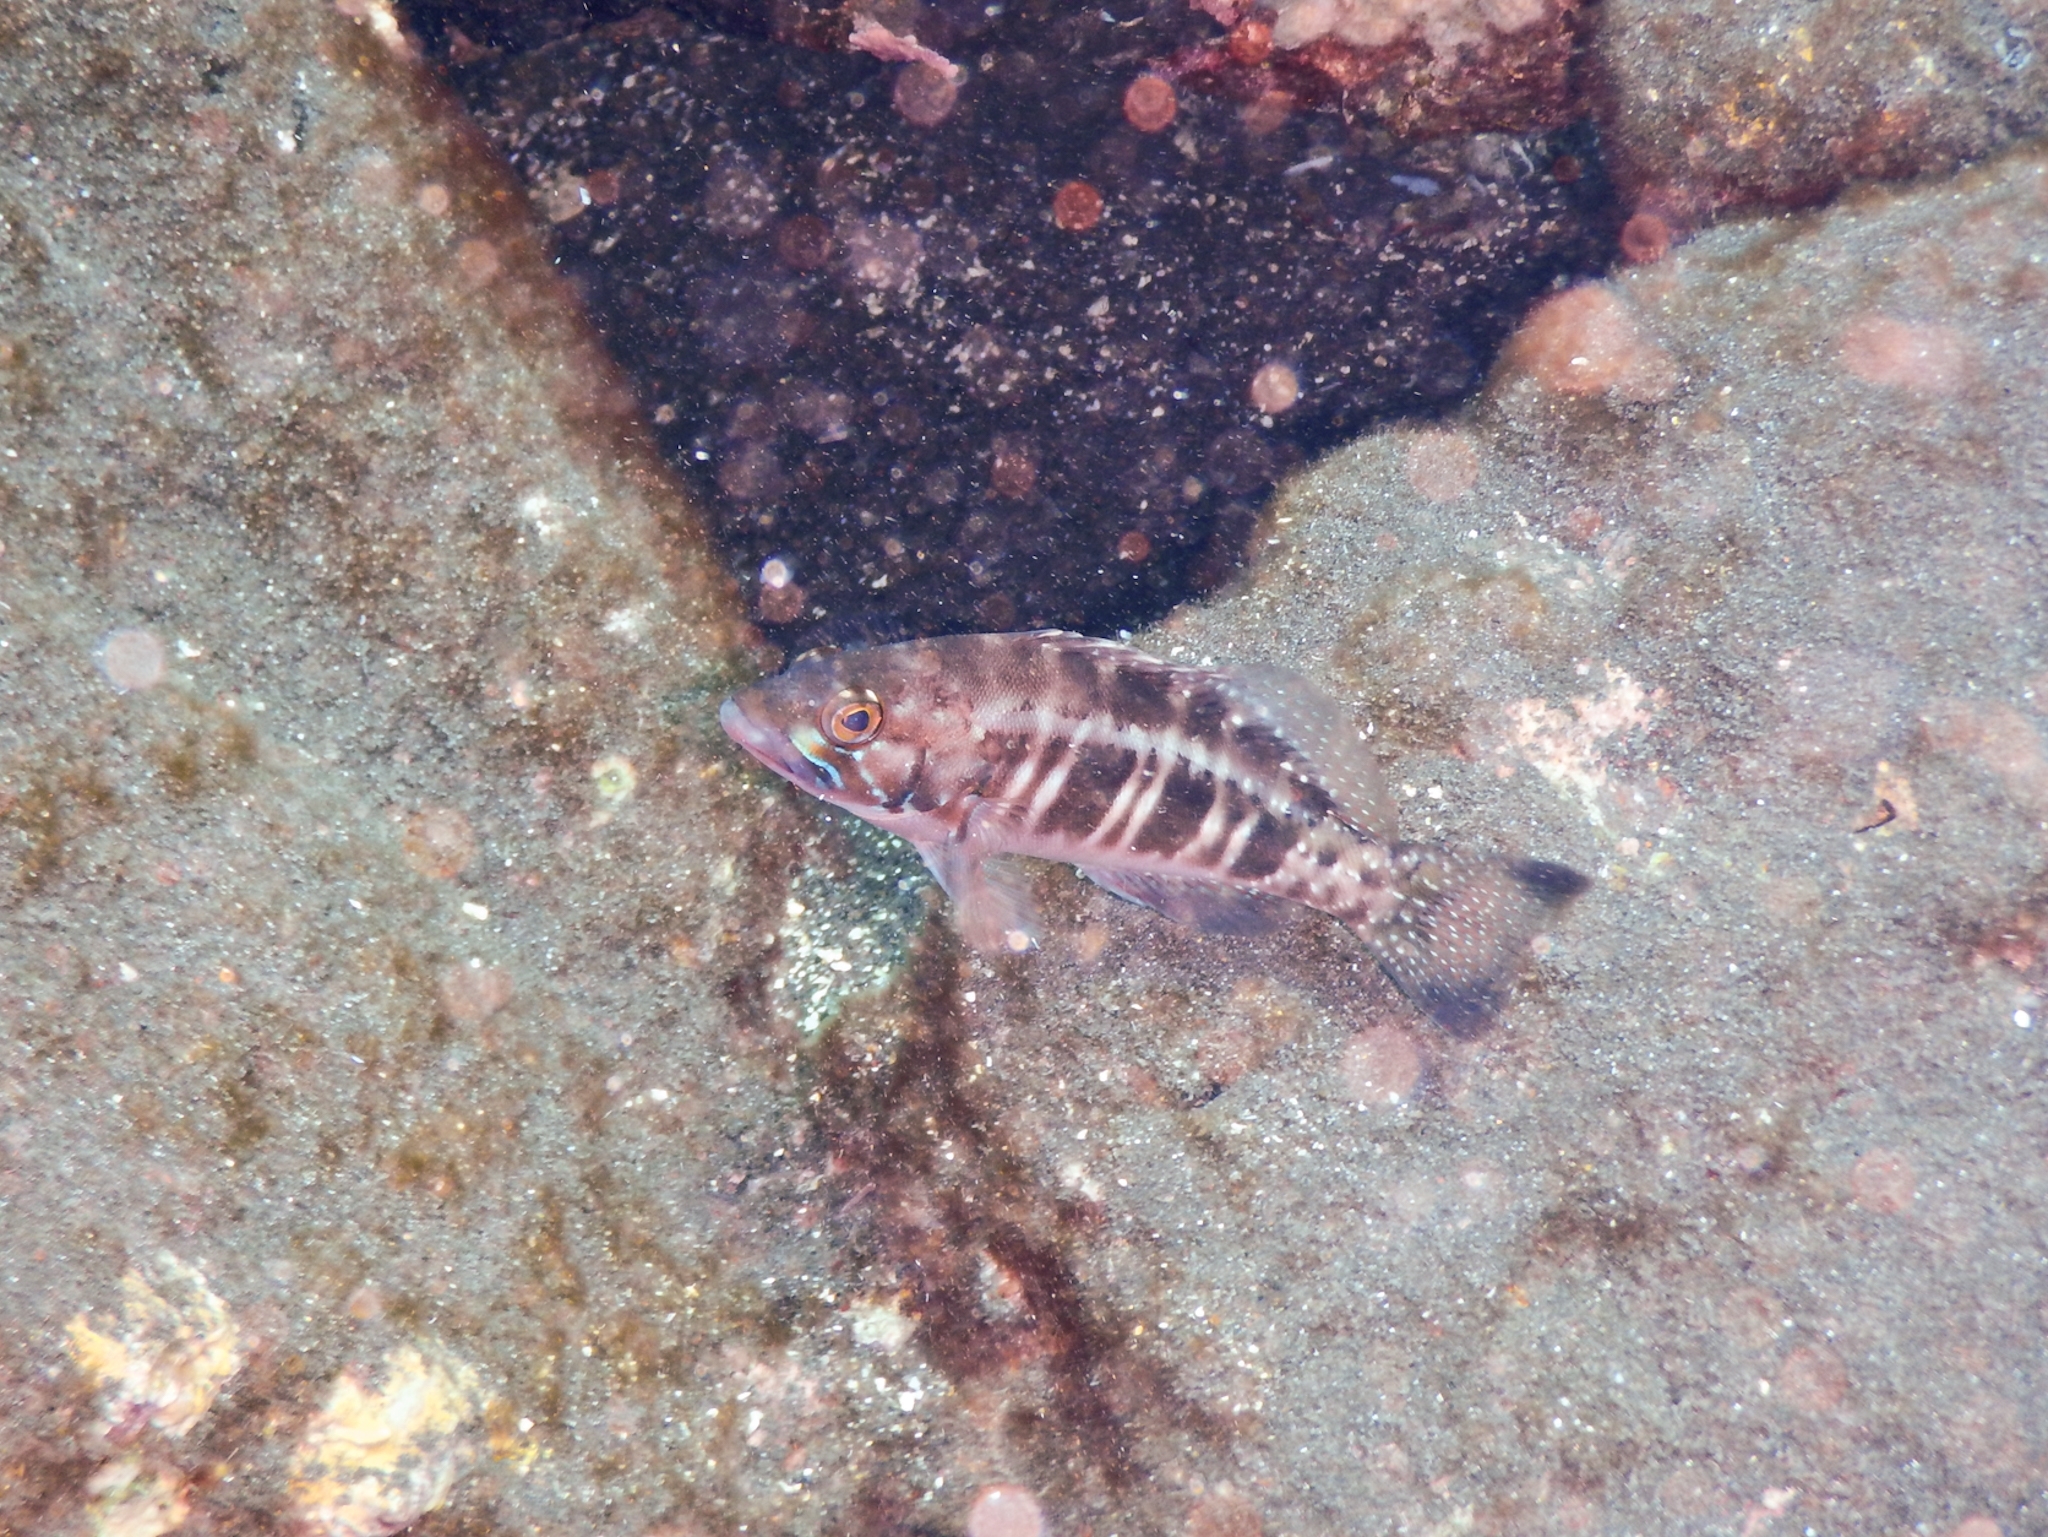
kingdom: Animalia
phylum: Chordata
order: Perciformes
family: Serranidae
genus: Serranus
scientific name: Serranus atricauda
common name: Blacktail comber
